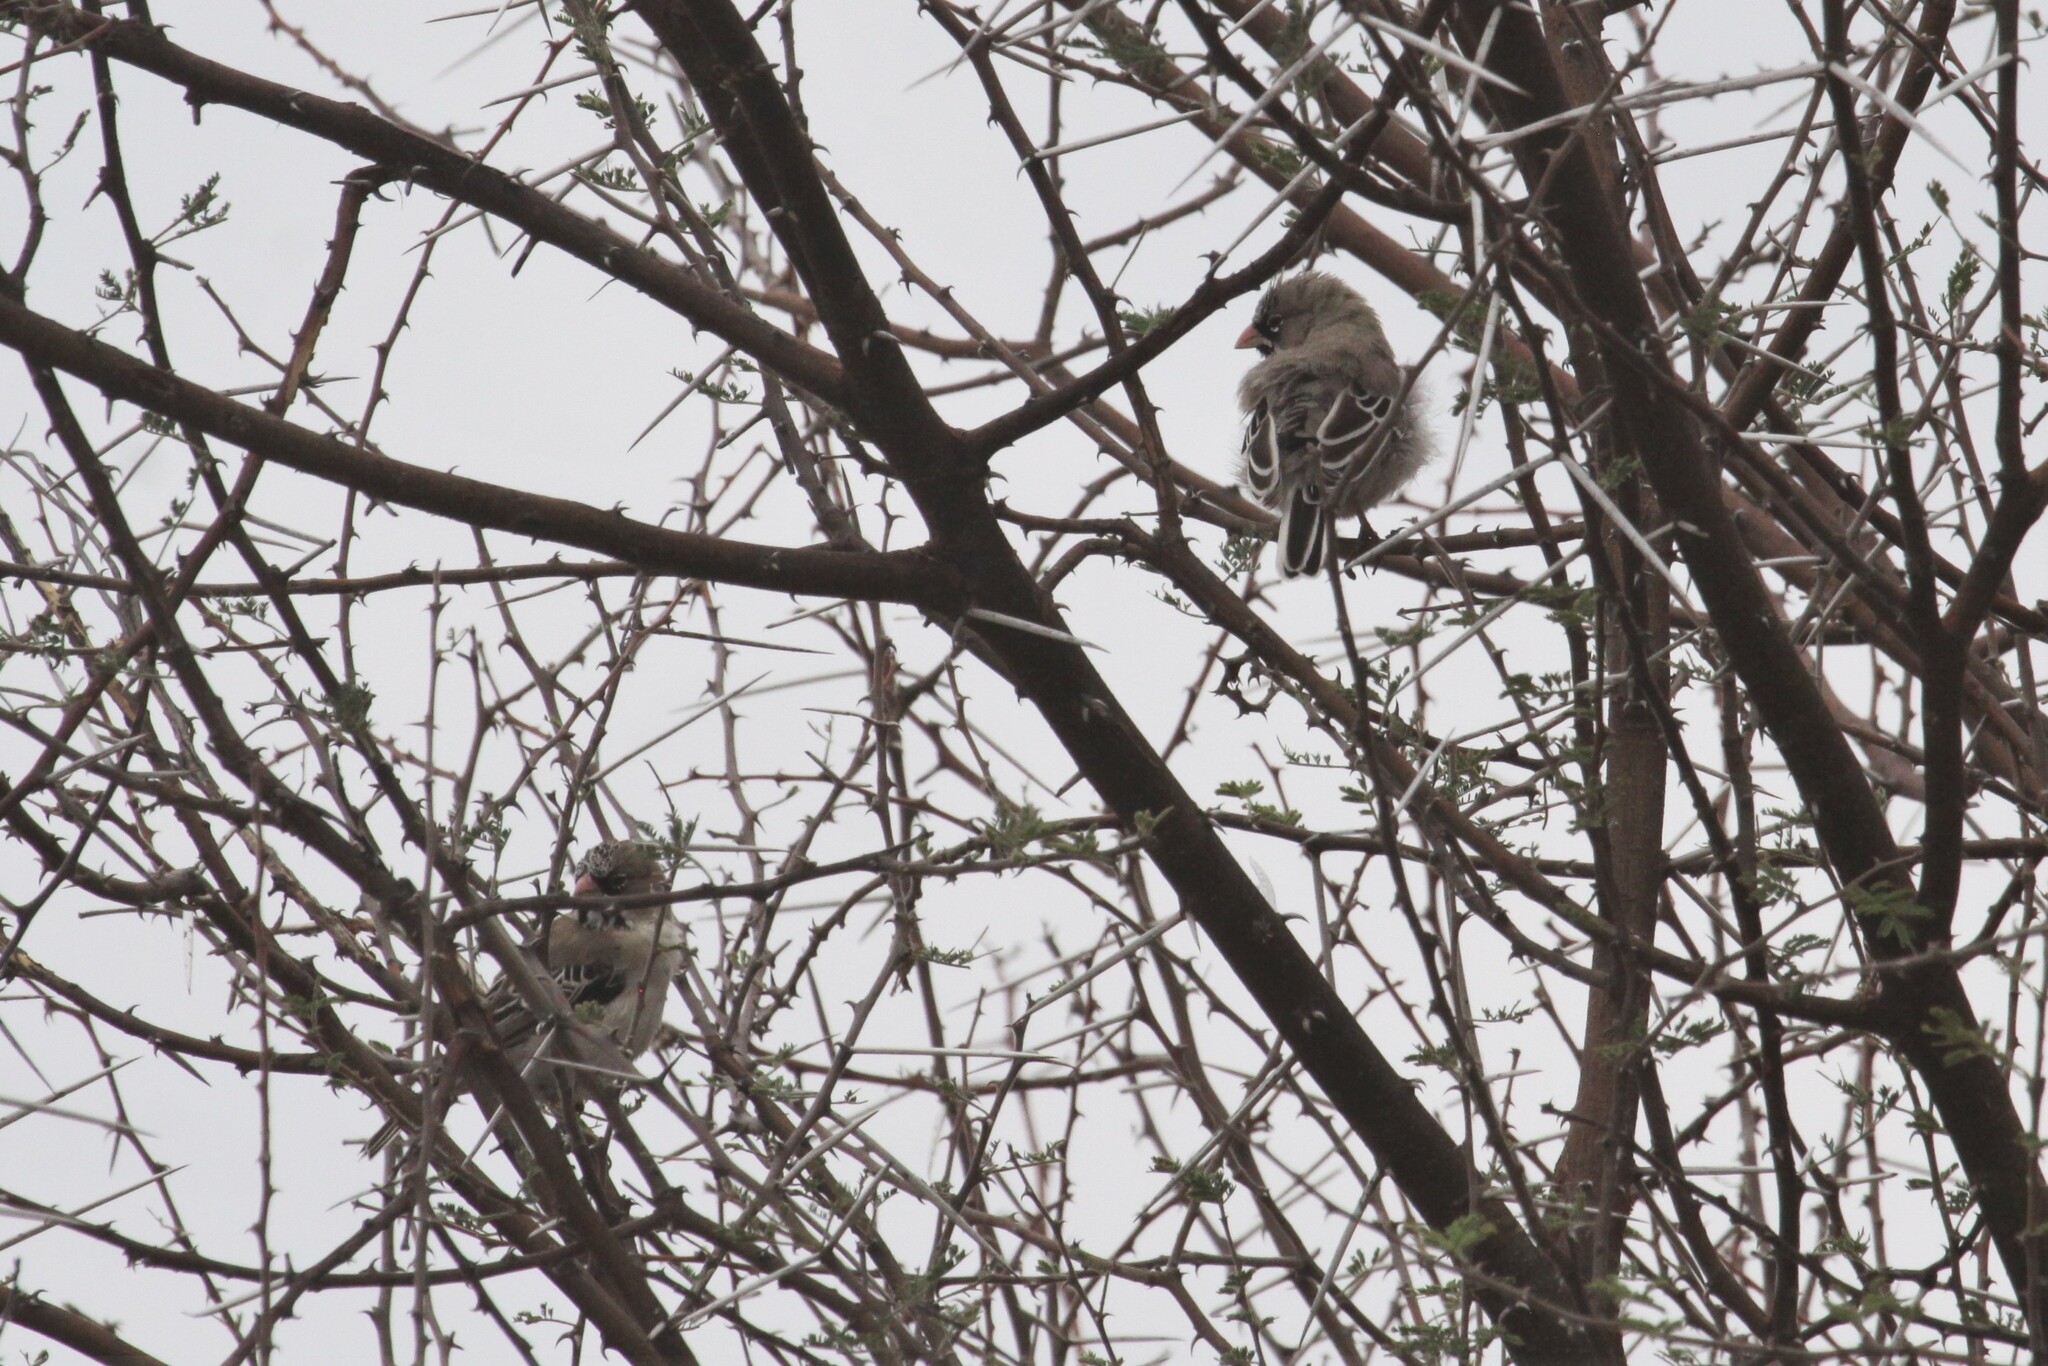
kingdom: Animalia
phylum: Chordata
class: Aves
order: Passeriformes
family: Ploceidae
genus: Sporopipes
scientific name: Sporopipes squamifrons
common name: Scaly-feathered weaver
